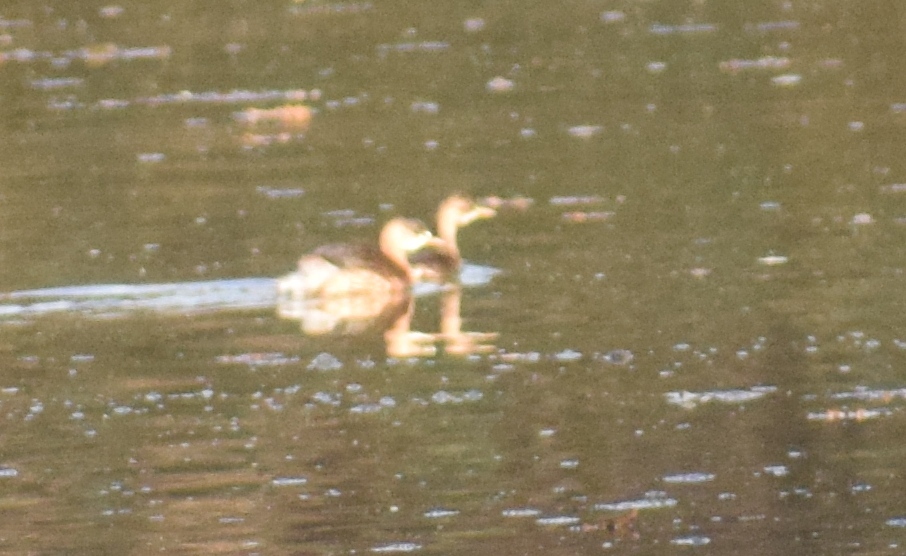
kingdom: Animalia
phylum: Chordata
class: Aves
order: Podicipediformes
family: Podicipedidae
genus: Tachybaptus
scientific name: Tachybaptus ruficollis
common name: Little grebe
